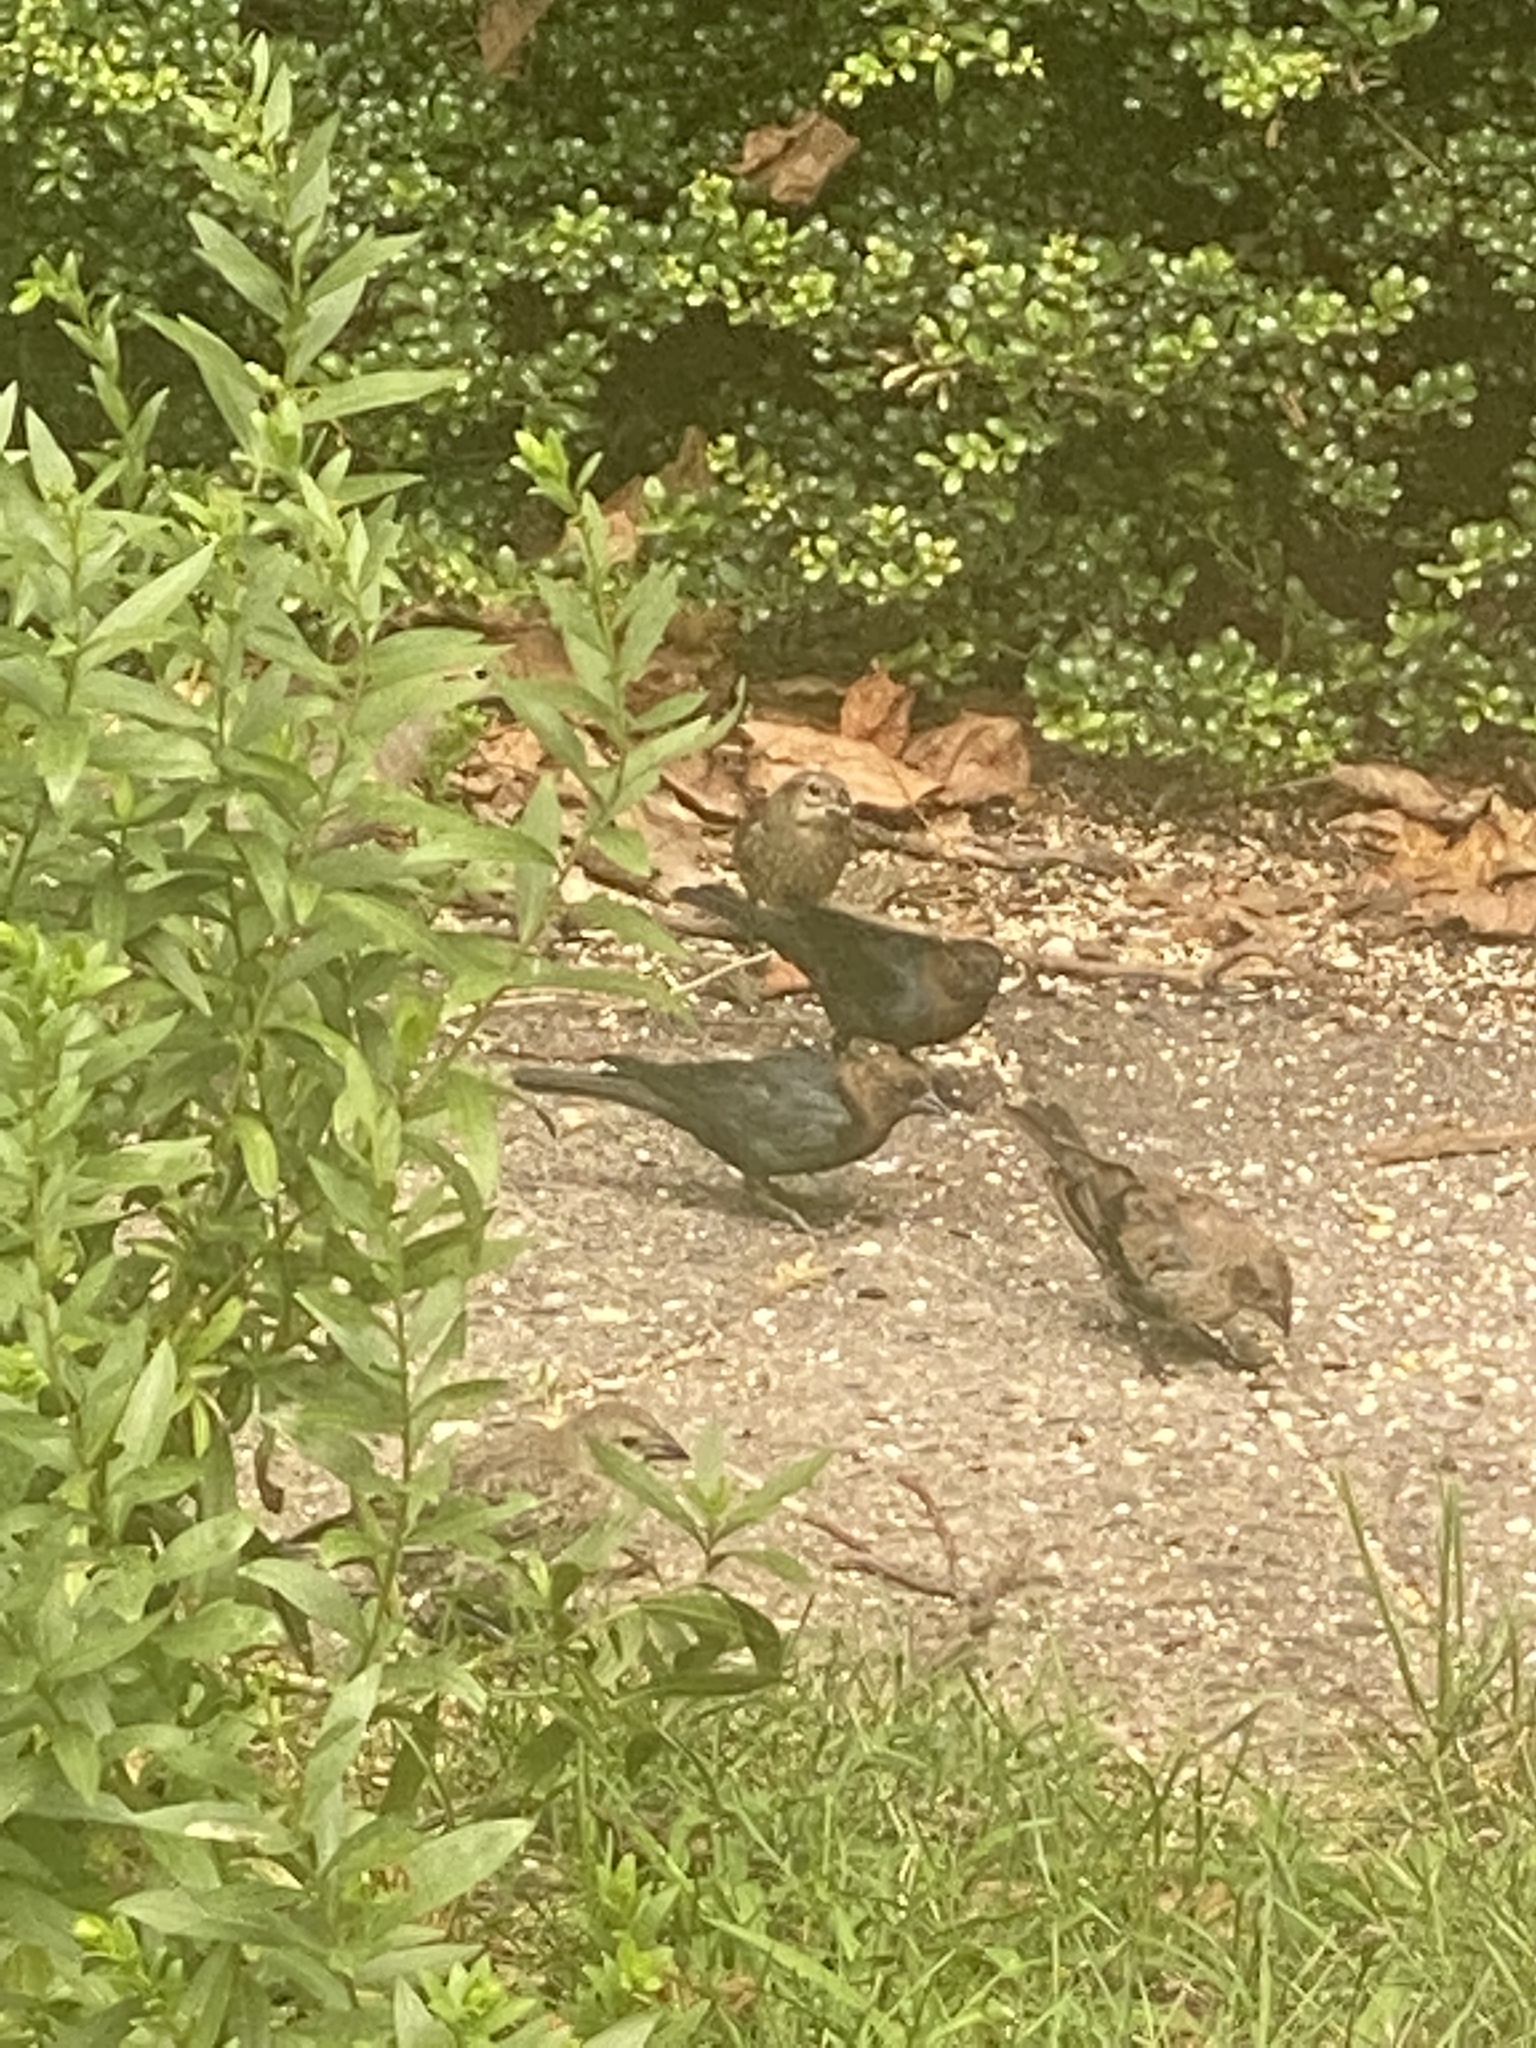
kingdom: Animalia
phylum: Chordata
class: Aves
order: Passeriformes
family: Icteridae
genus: Molothrus
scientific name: Molothrus ater
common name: Brown-headed cowbird
